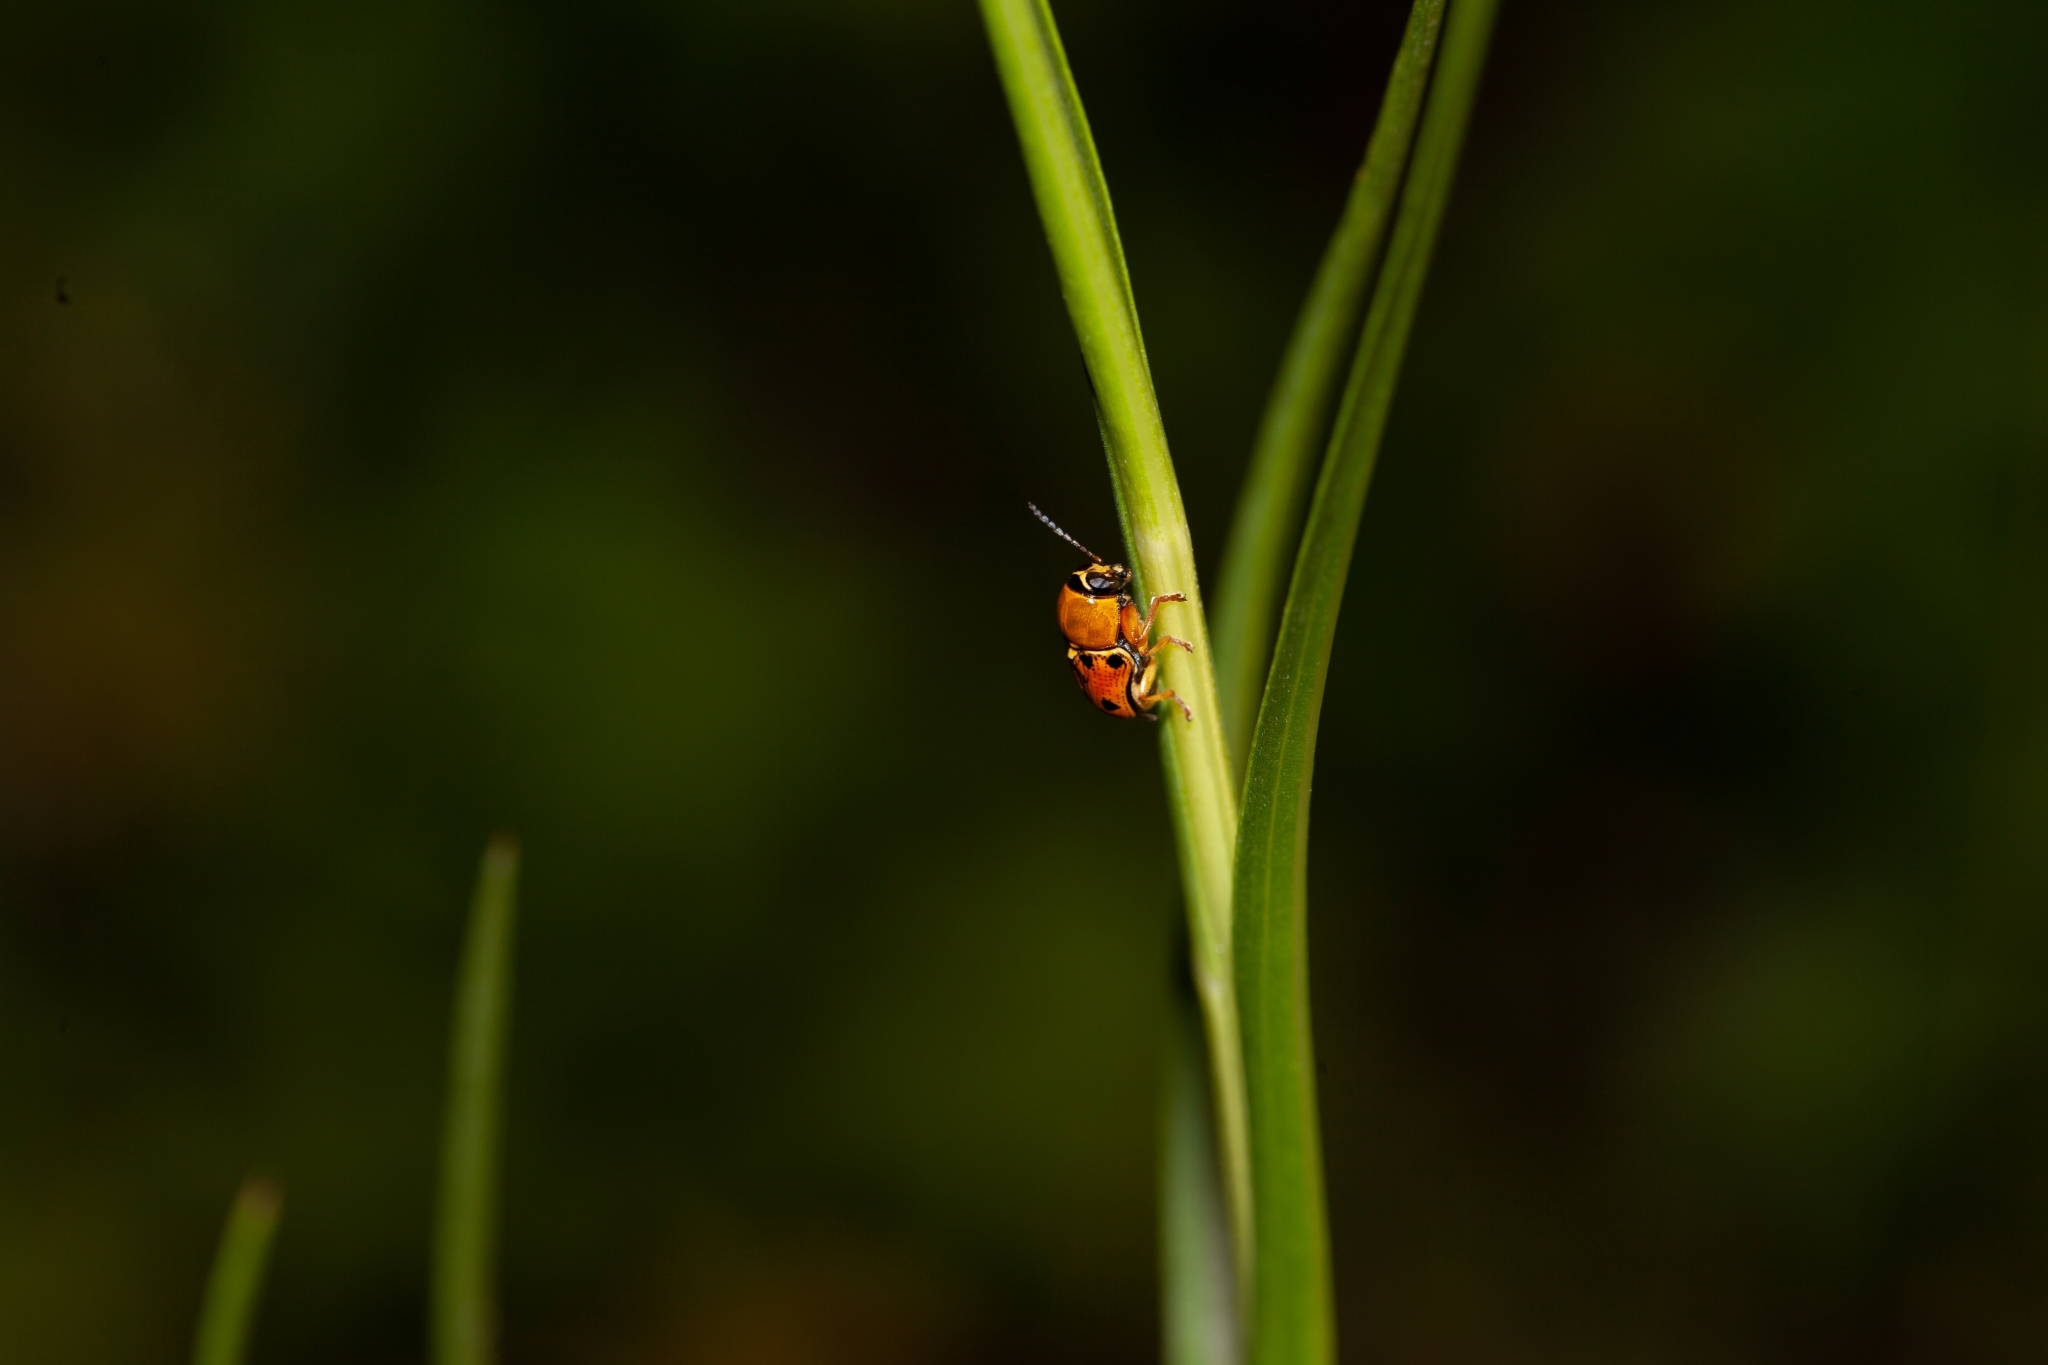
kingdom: Animalia
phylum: Arthropoda
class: Insecta
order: Coleoptera
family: Chrysomelidae
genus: Griburius
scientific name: Griburius larvatus
